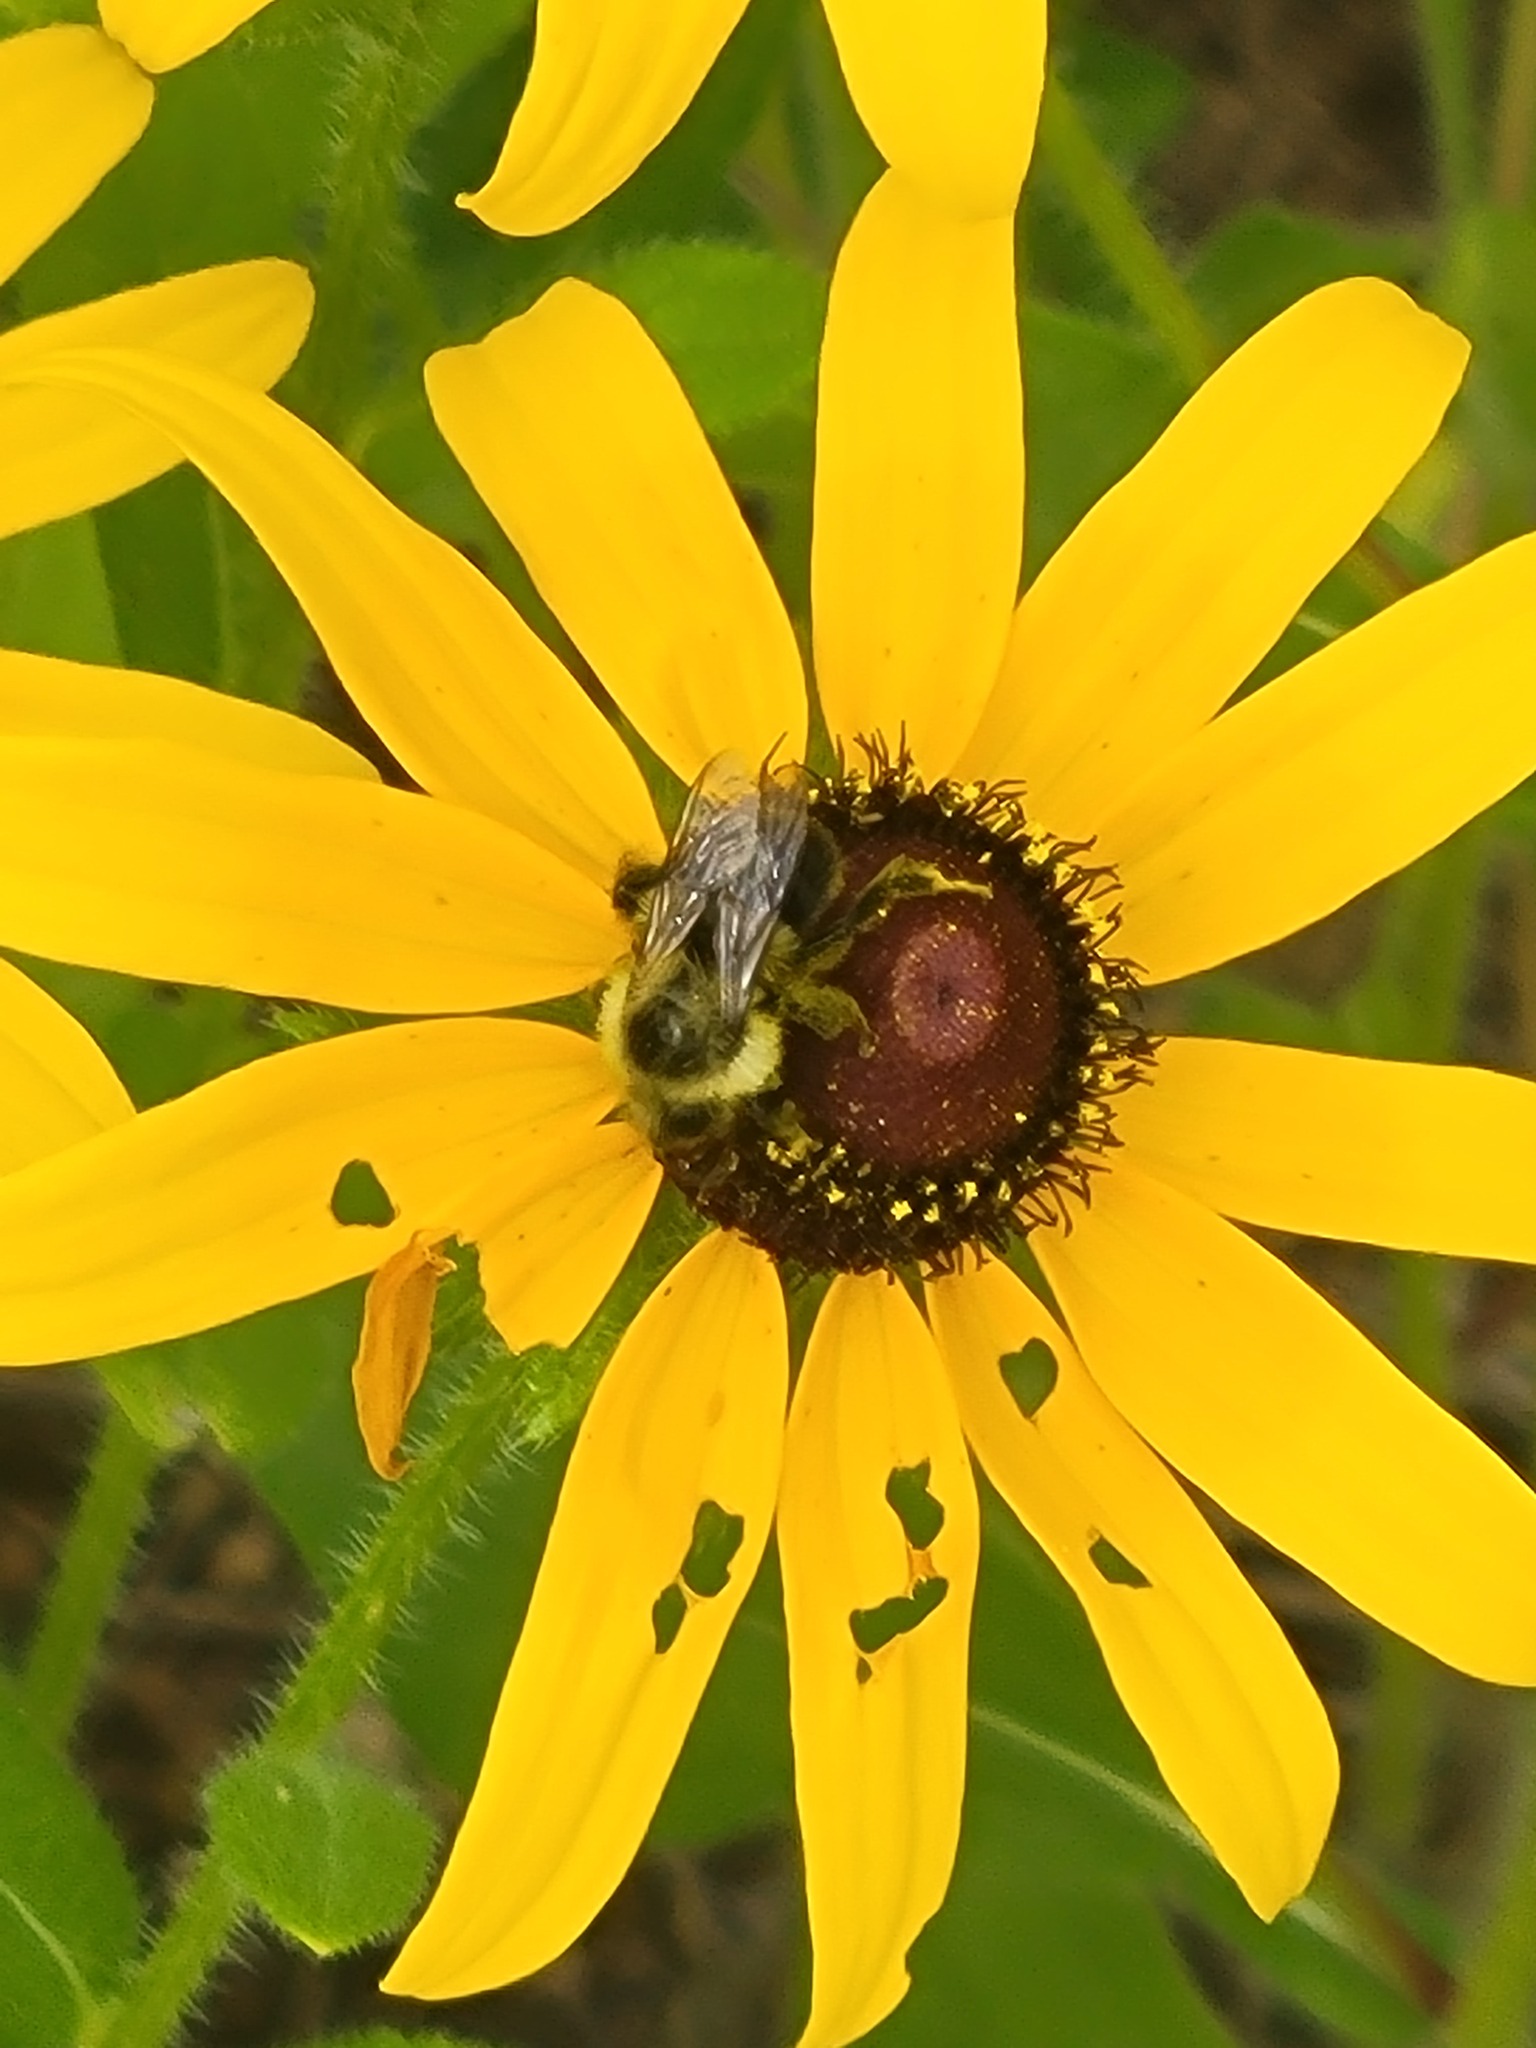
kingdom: Animalia
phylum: Arthropoda
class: Insecta
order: Hymenoptera
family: Apidae
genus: Bombus
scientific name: Bombus impatiens
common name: Common eastern bumble bee
